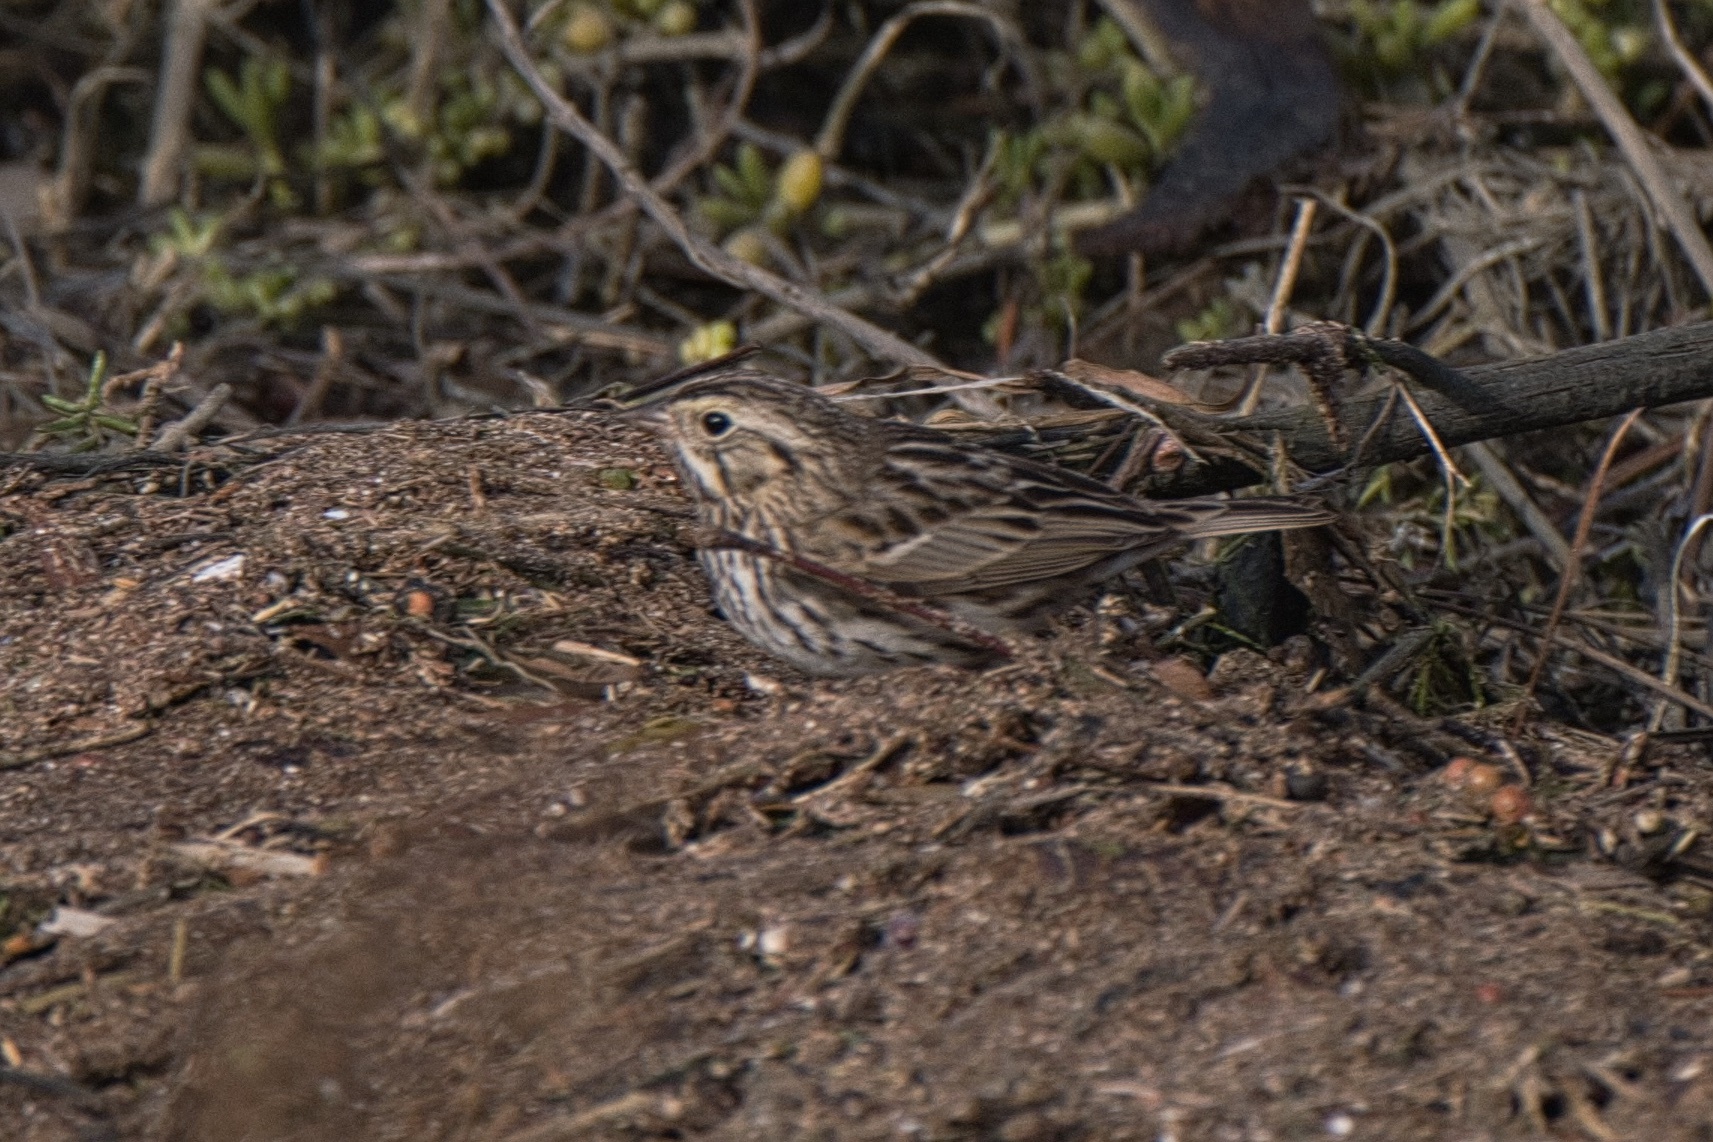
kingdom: Animalia
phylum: Chordata
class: Aves
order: Passeriformes
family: Passerellidae
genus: Passerculus
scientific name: Passerculus sandwichensis
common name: Savannah sparrow
